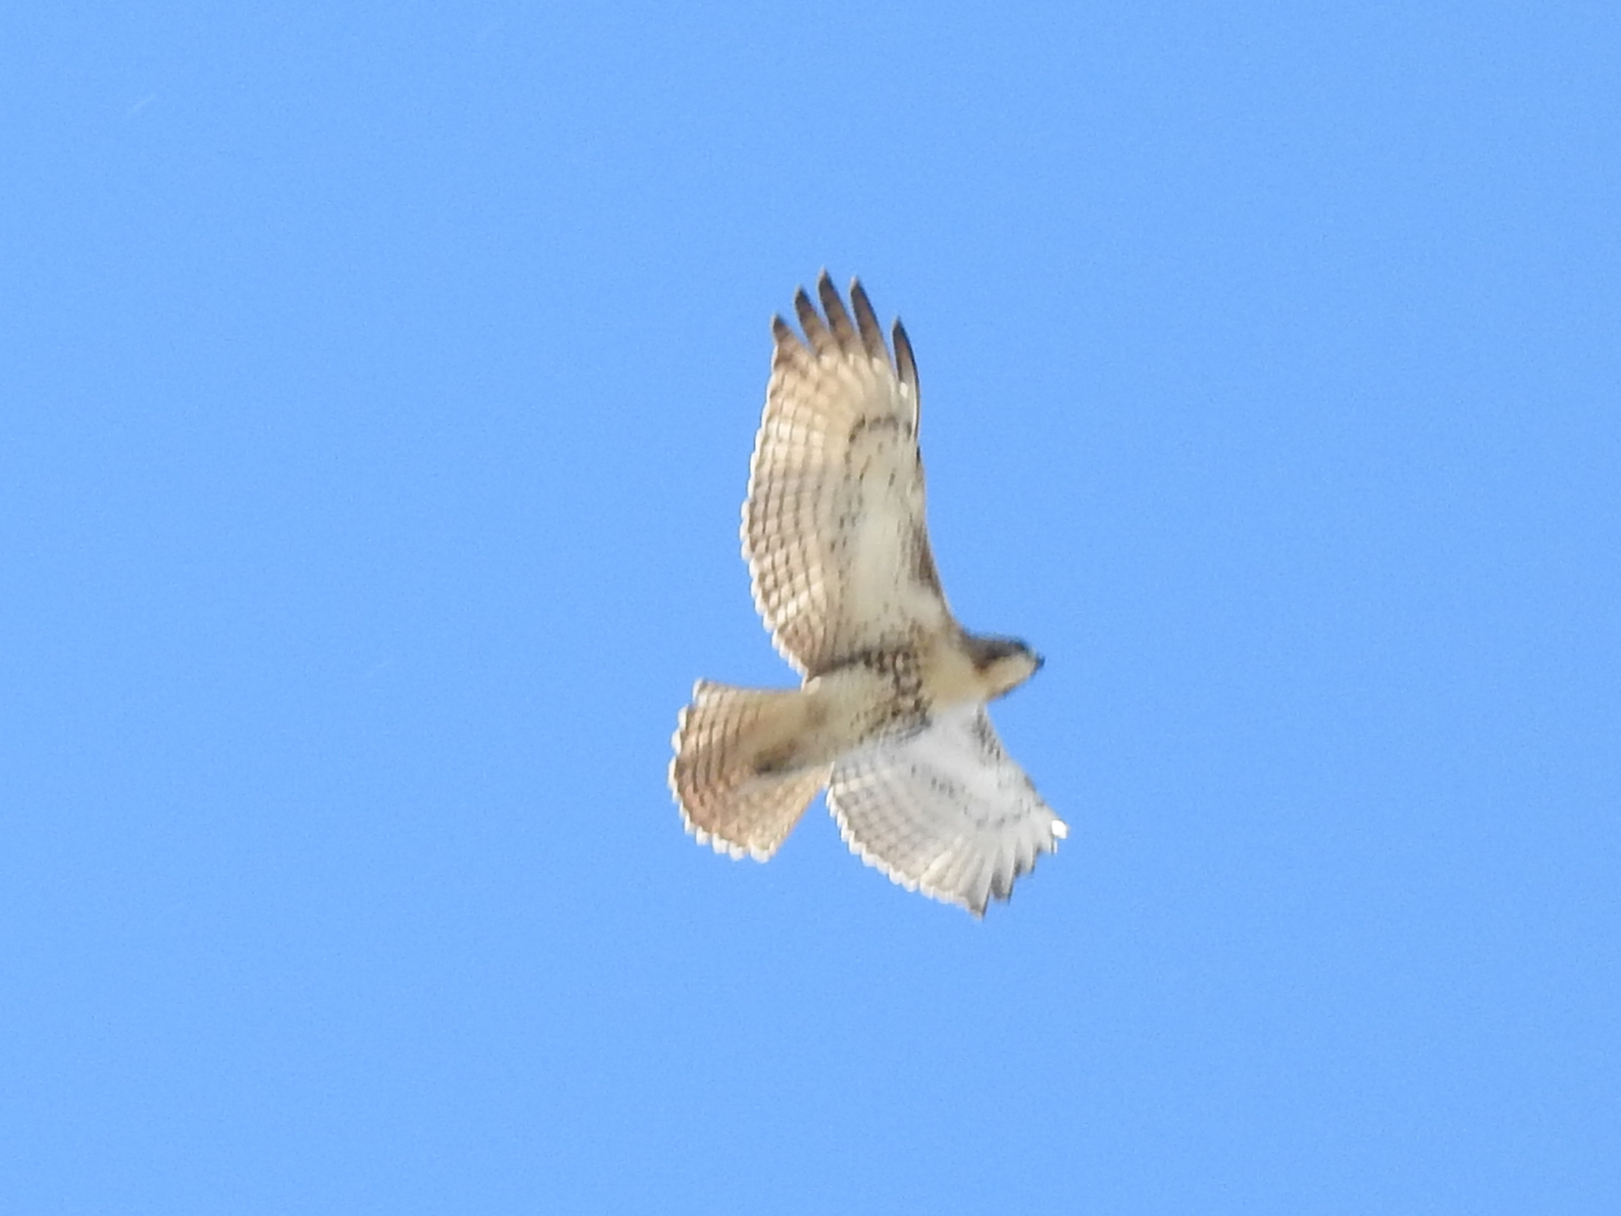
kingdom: Animalia
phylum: Chordata
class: Aves
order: Accipitriformes
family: Accipitridae
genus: Buteo
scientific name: Buteo jamaicensis
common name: Red-tailed hawk
